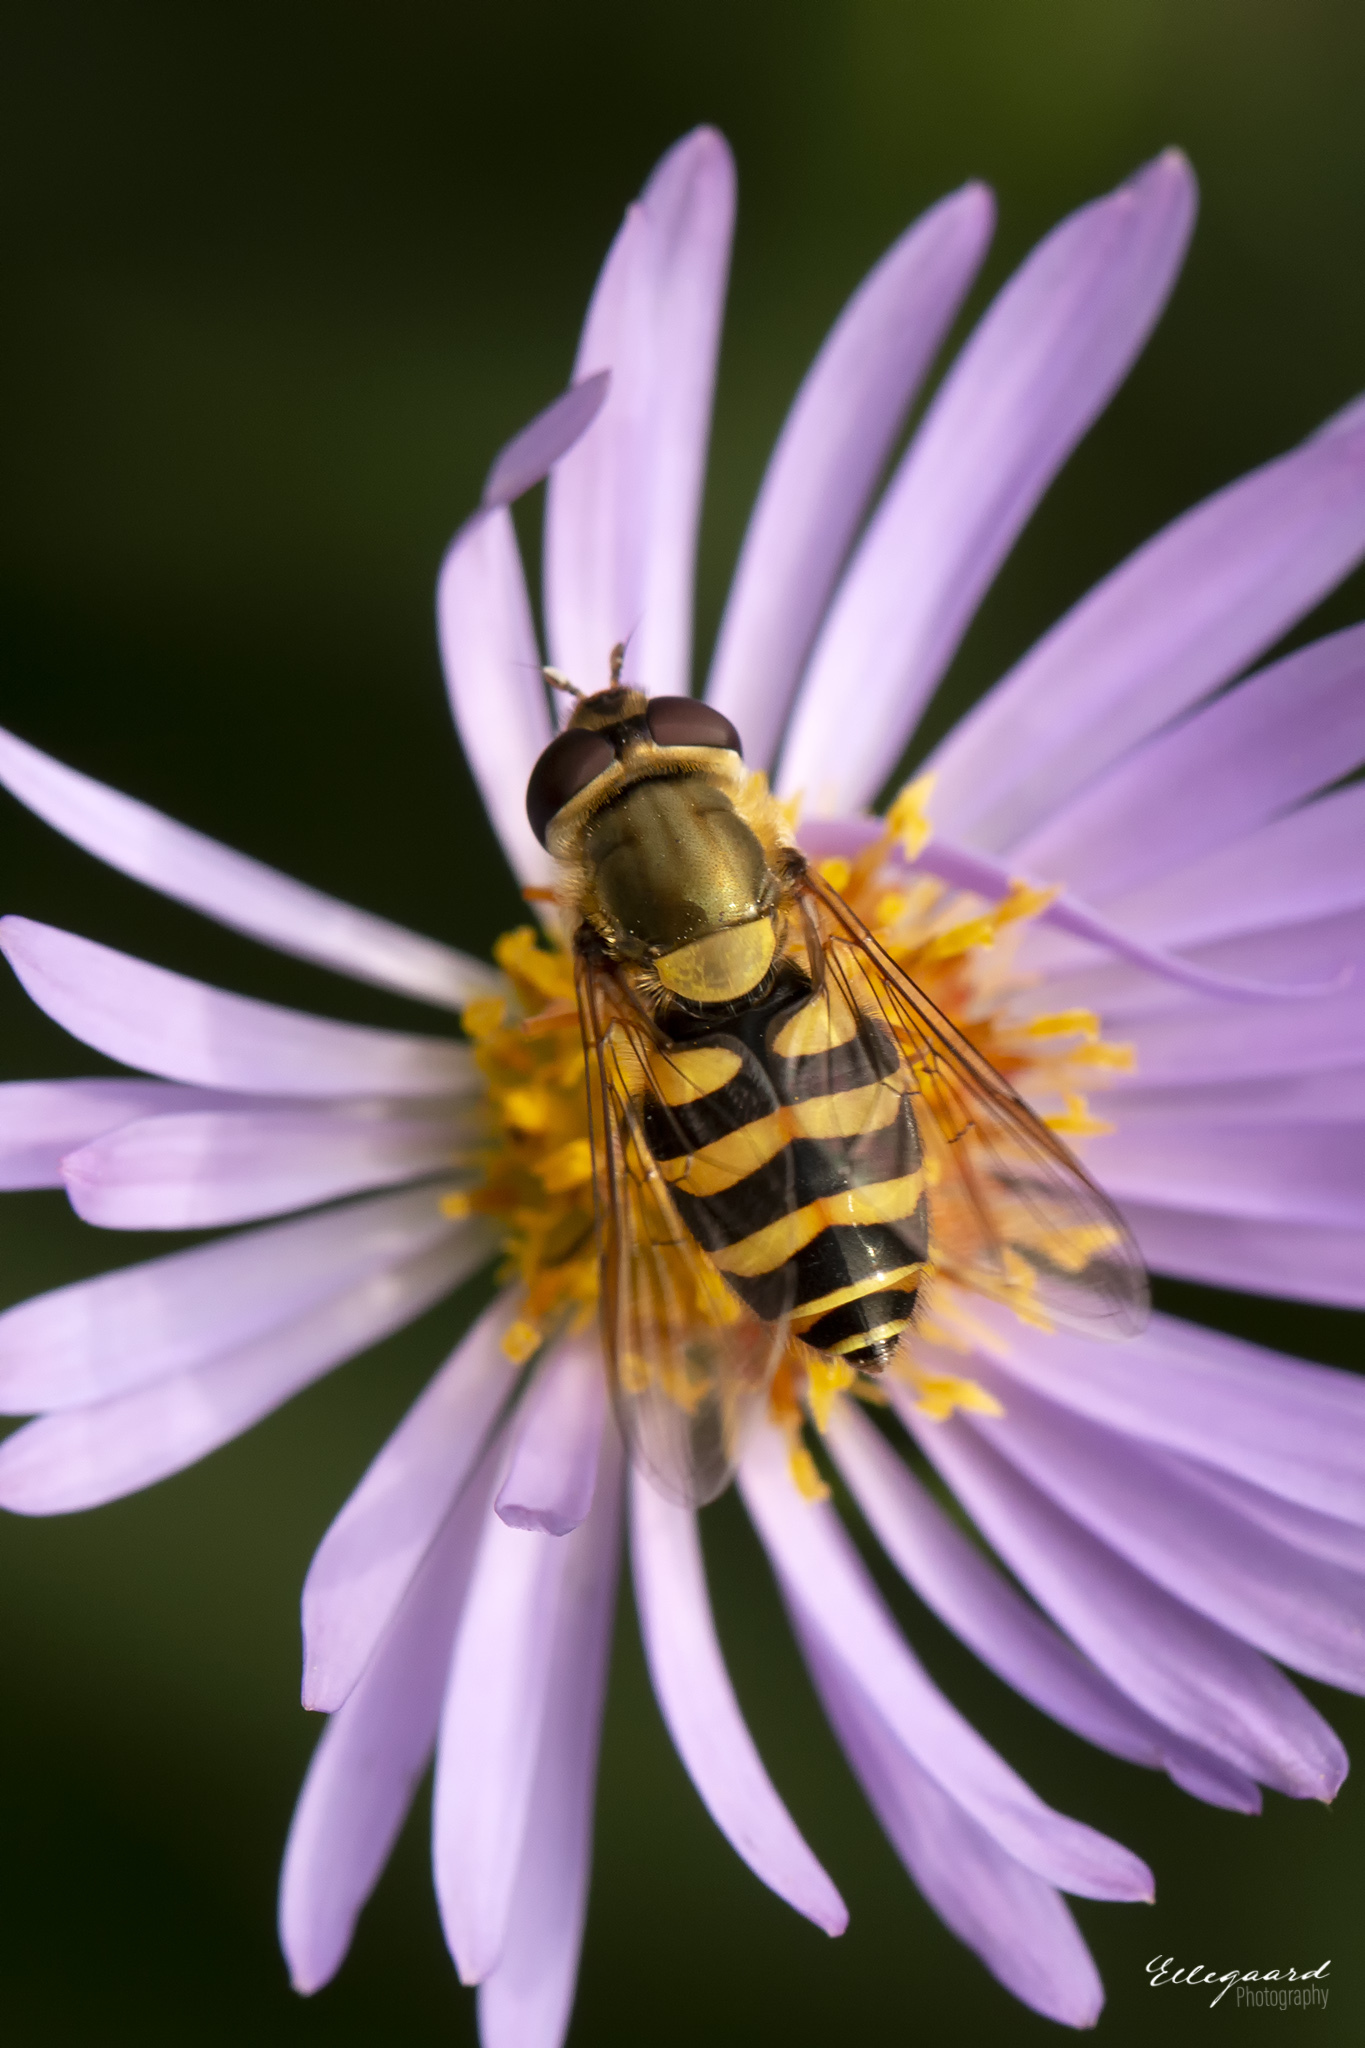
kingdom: Animalia
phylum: Arthropoda
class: Insecta
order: Diptera
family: Syrphidae
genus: Syrphus
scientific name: Syrphus
